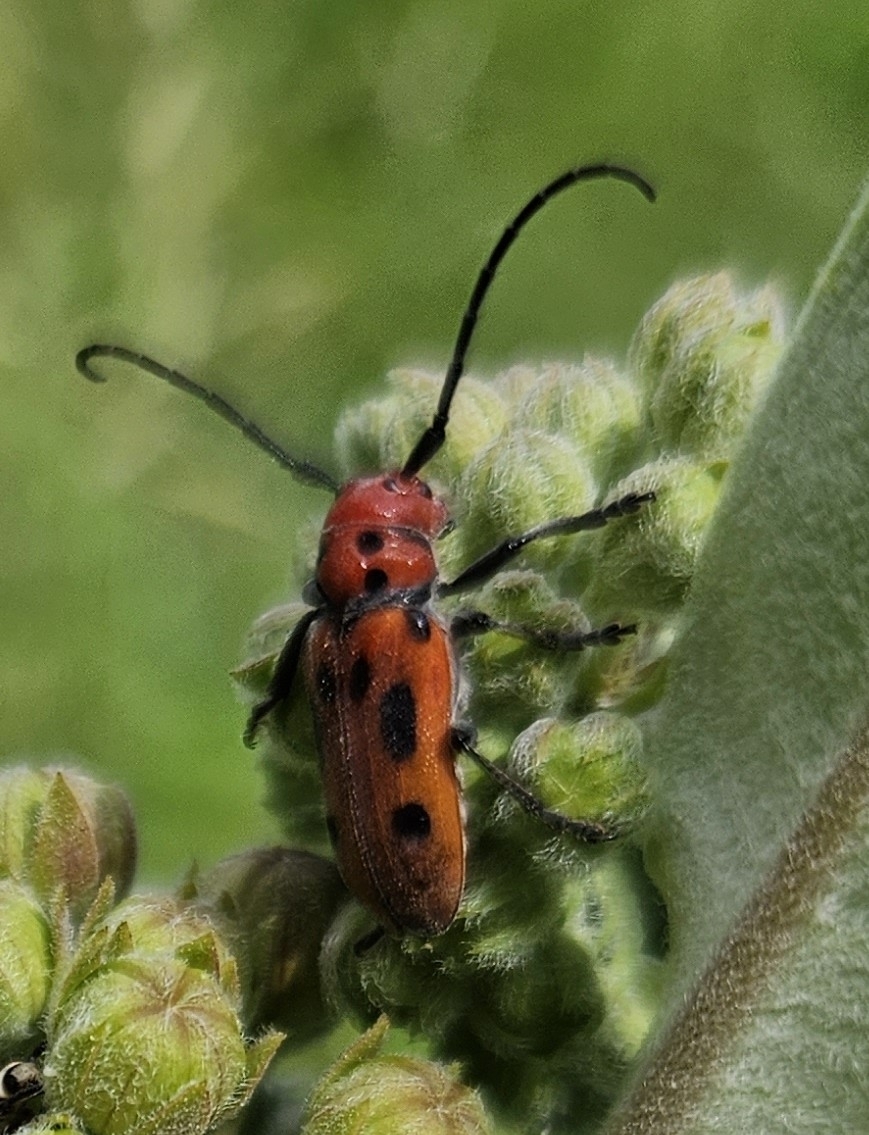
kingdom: Animalia
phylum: Arthropoda
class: Insecta
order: Coleoptera
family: Cerambycidae
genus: Tetraopes
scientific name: Tetraopes tetrophthalmus
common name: Red milkweed beetle
